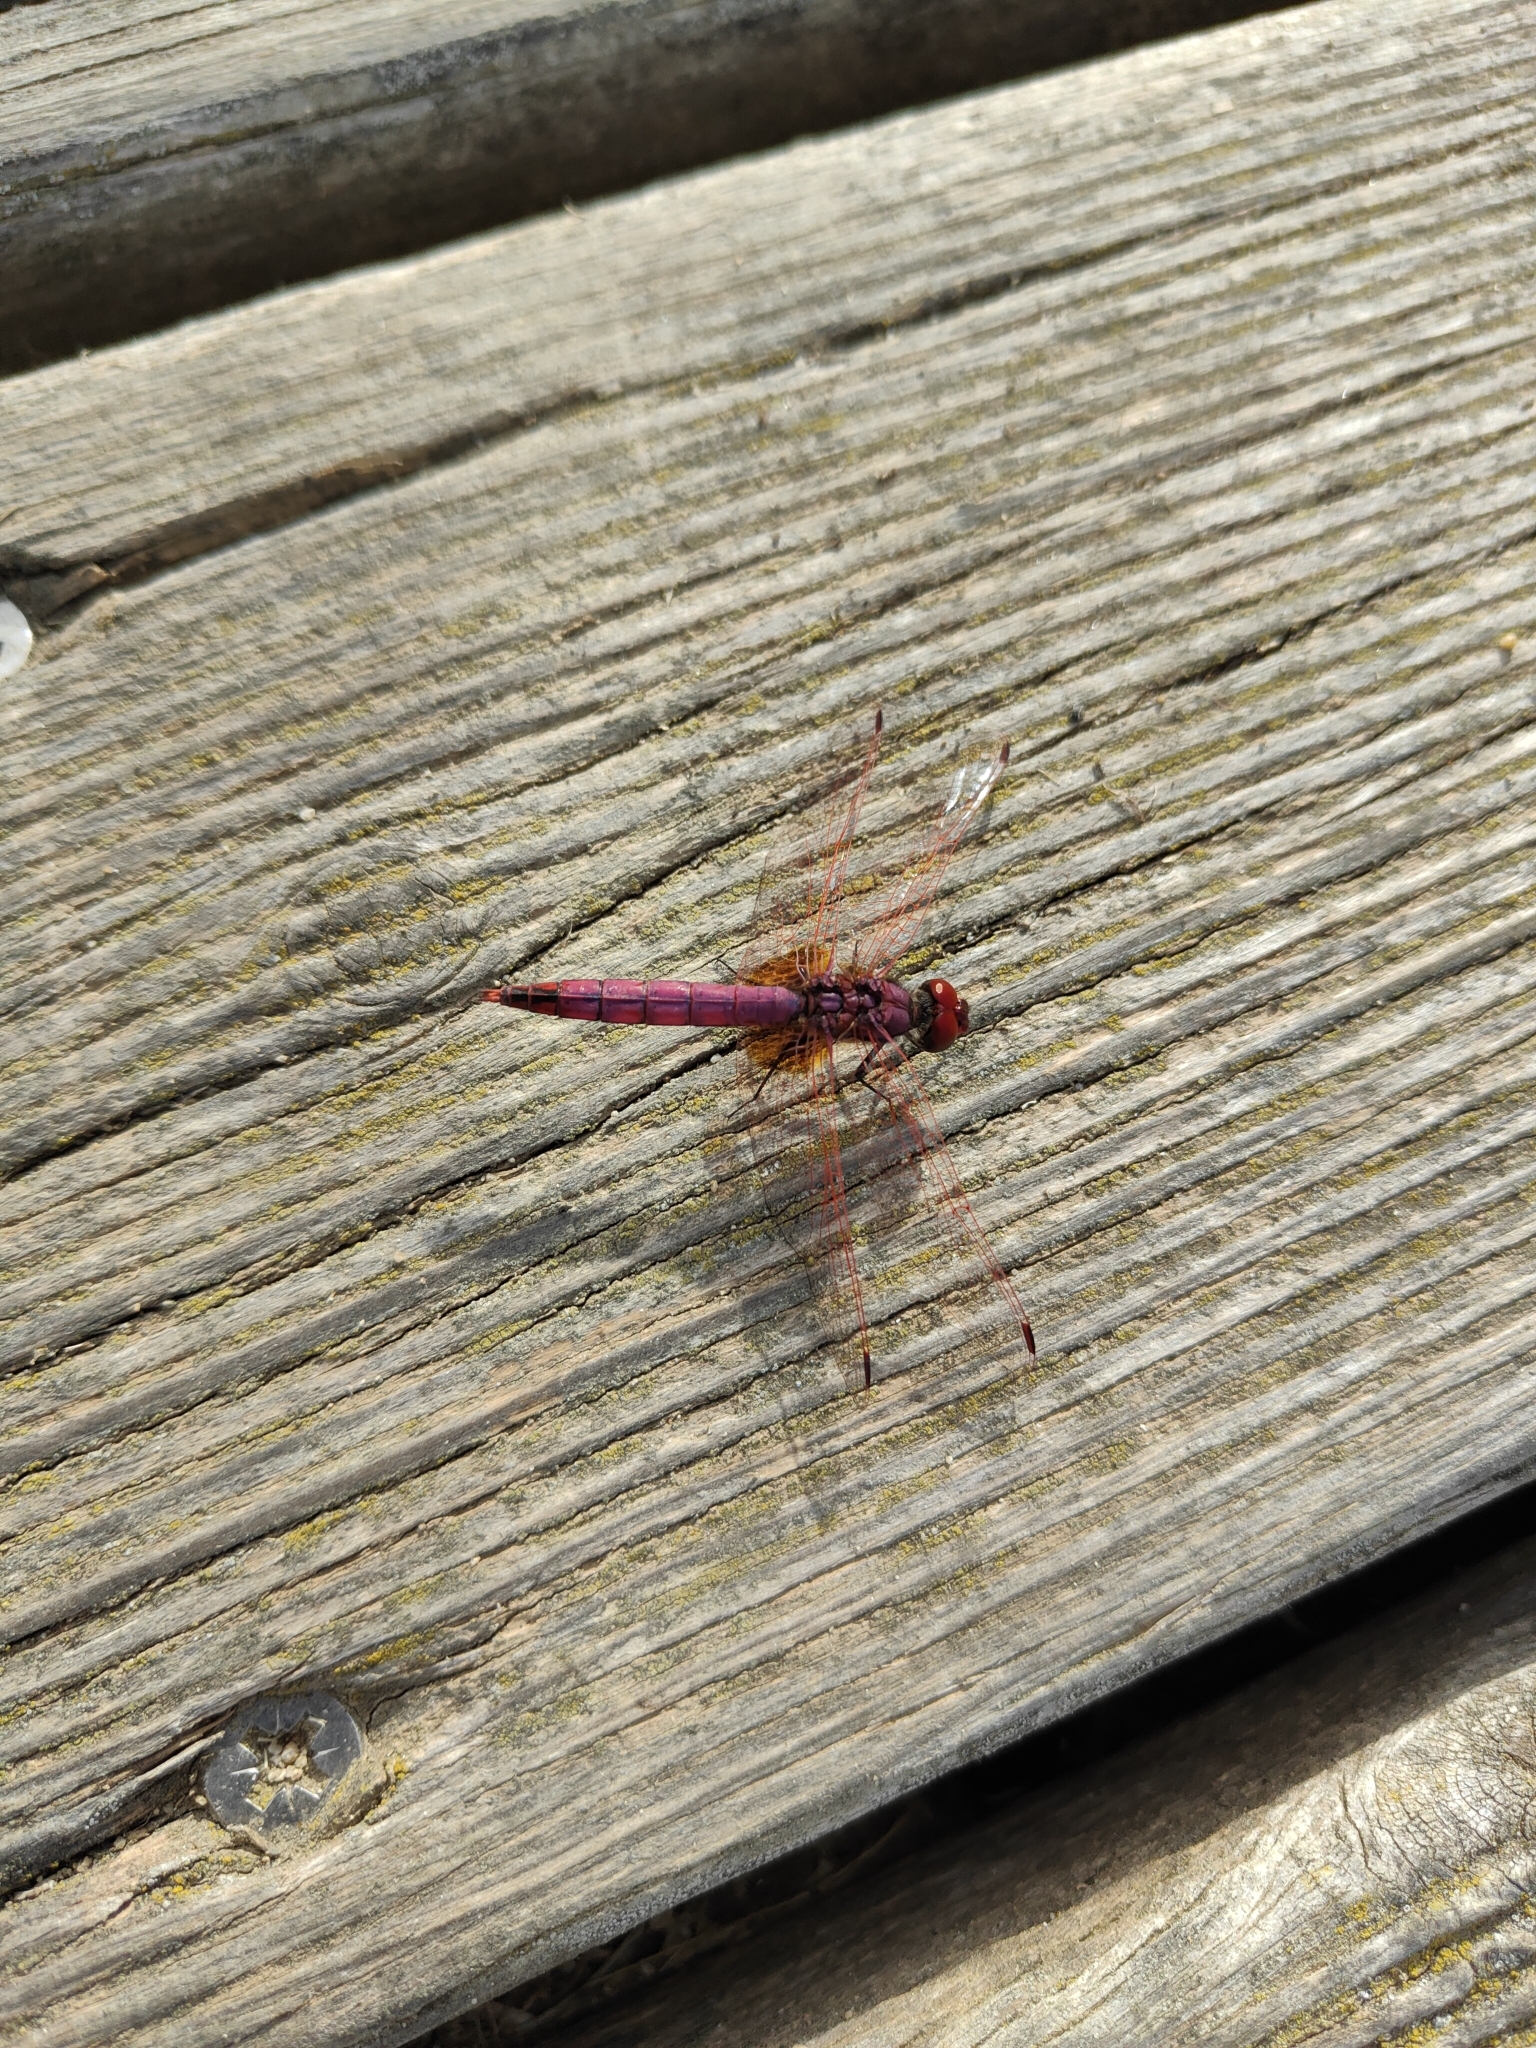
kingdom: Animalia
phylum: Arthropoda
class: Insecta
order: Odonata
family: Libellulidae
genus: Trithemis
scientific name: Trithemis annulata
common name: Violet dropwing
